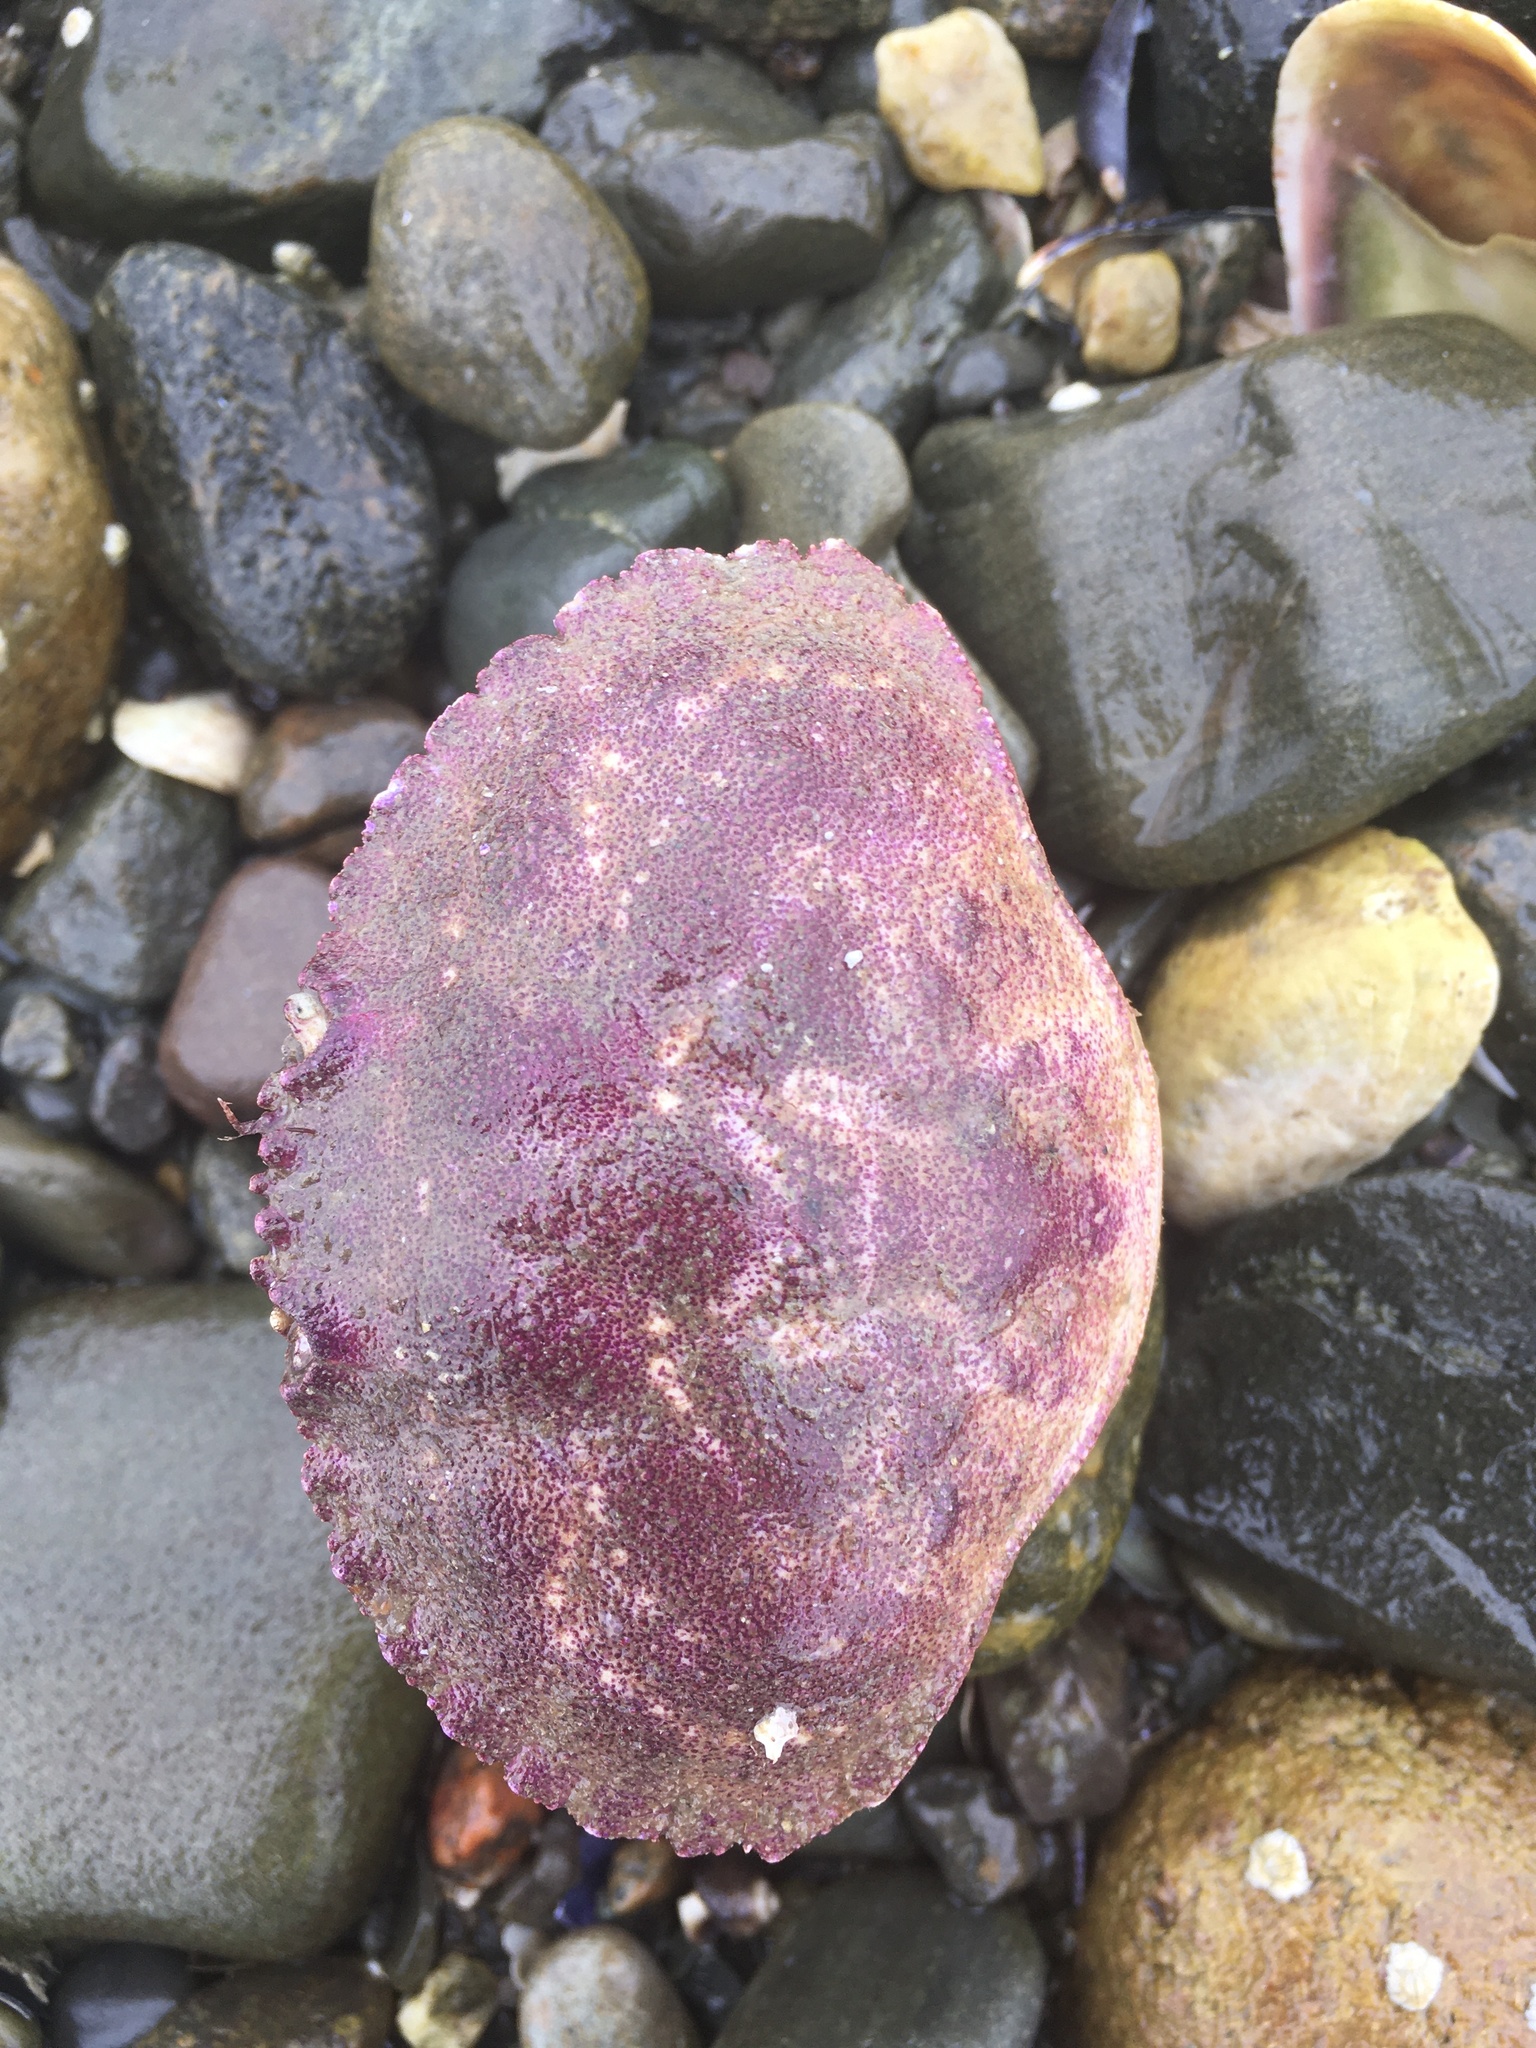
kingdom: Animalia
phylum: Arthropoda
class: Malacostraca
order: Decapoda
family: Cancridae
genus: Cancer
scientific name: Cancer borealis
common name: Jonah crab
